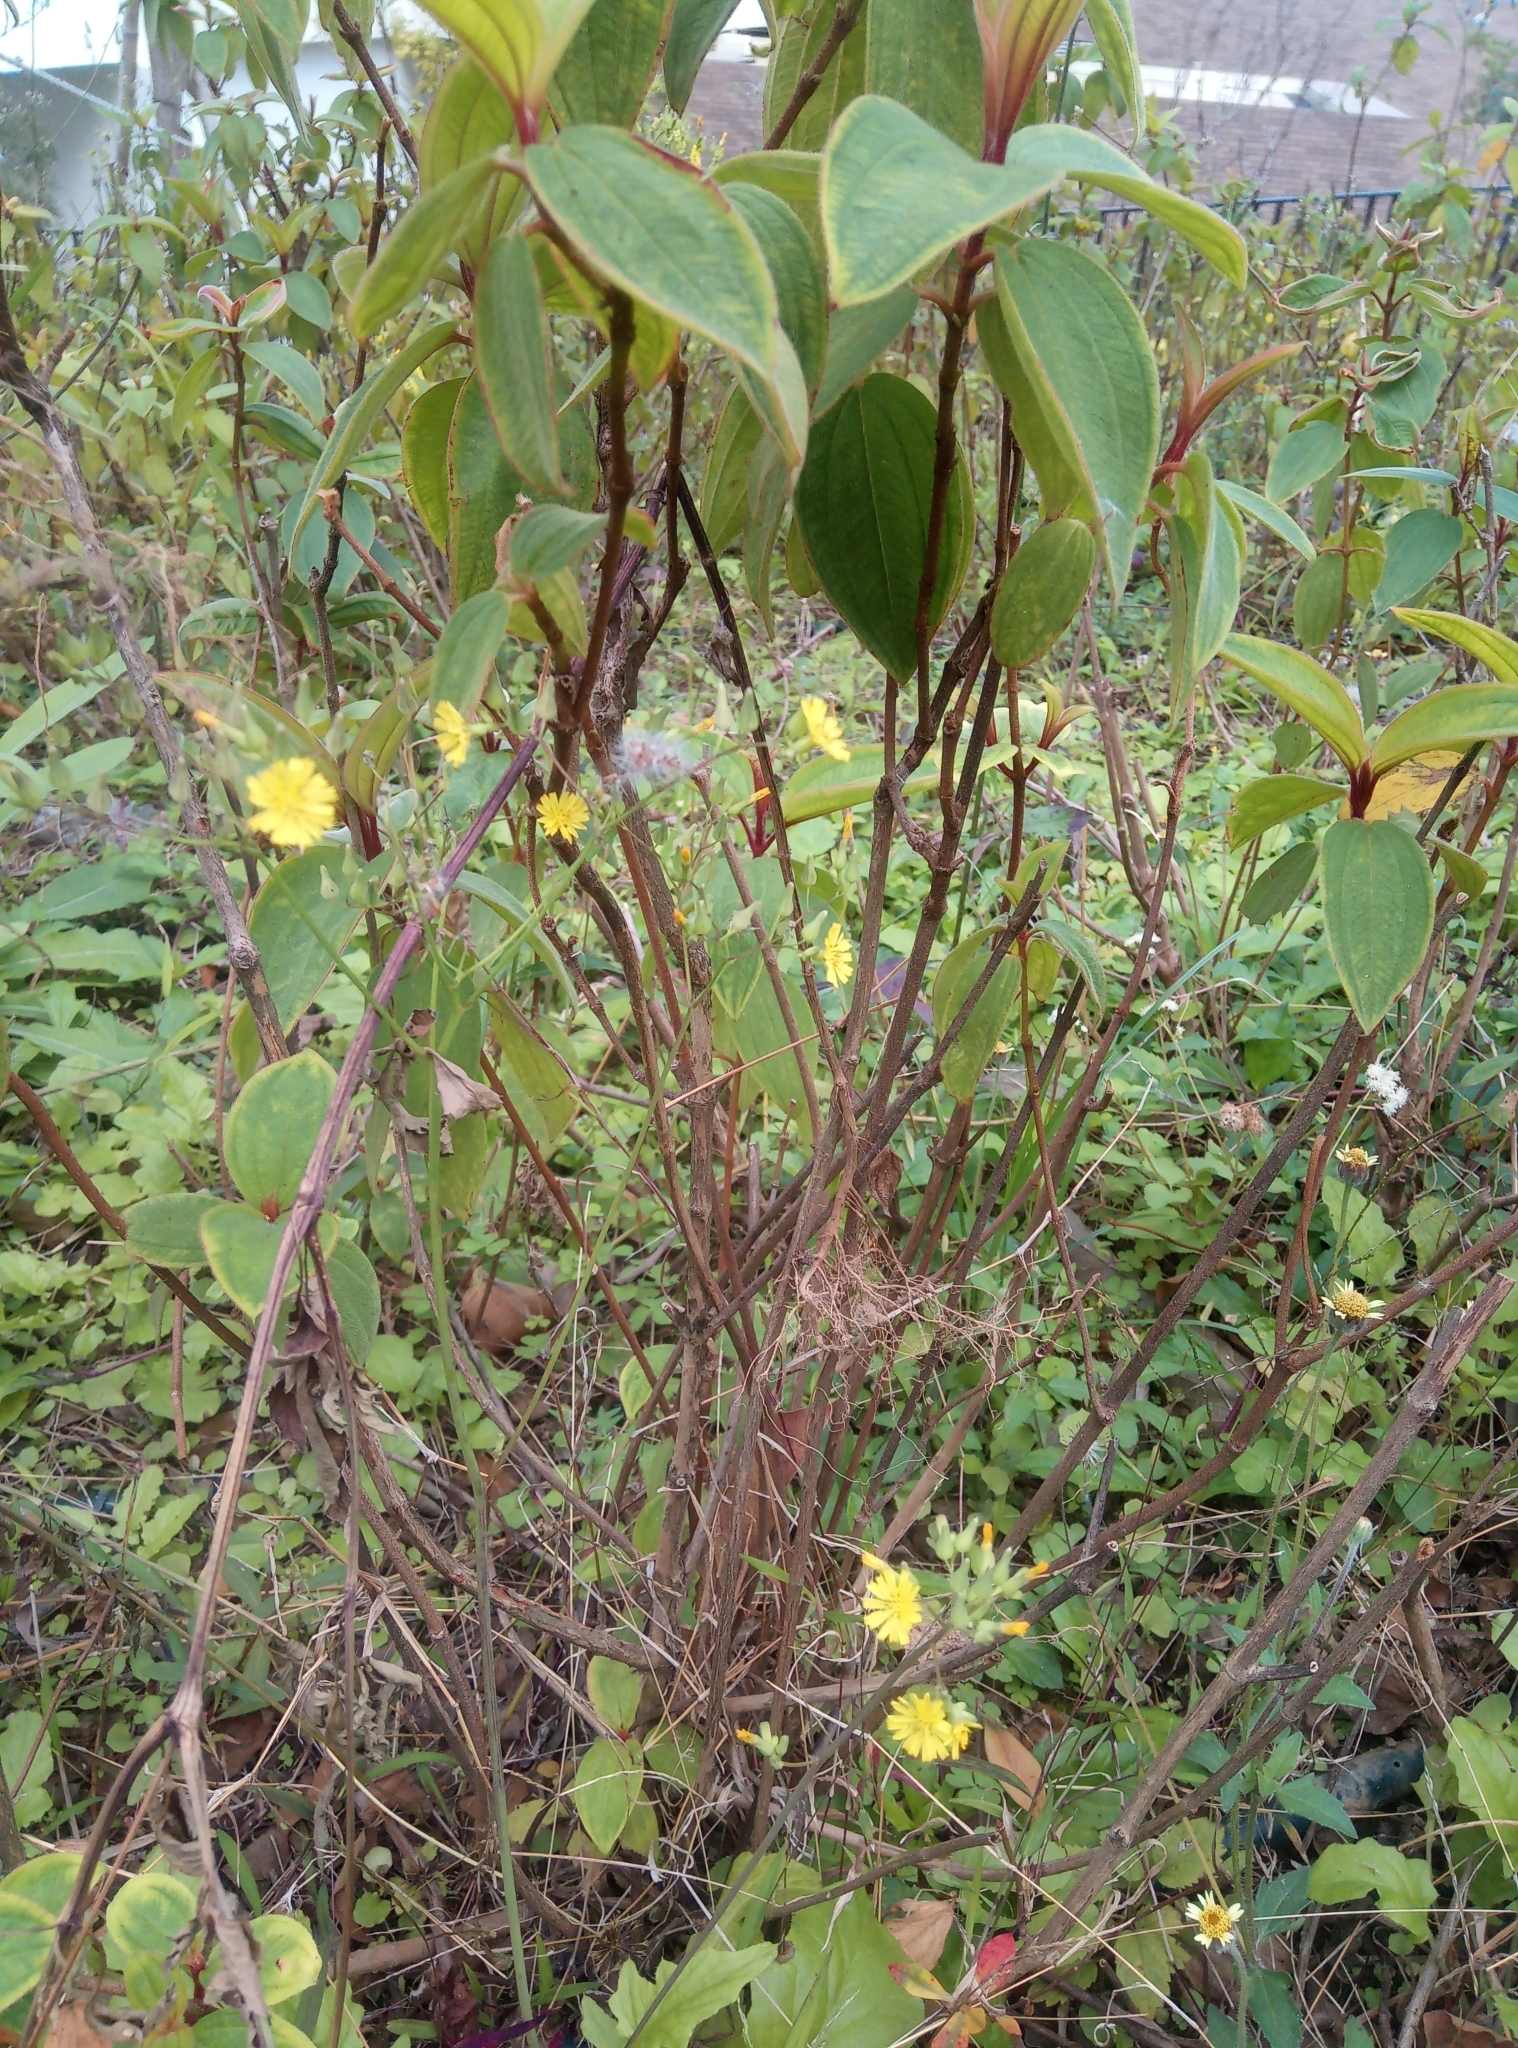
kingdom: Plantae
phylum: Tracheophyta
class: Magnoliopsida
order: Asterales
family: Asteraceae
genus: Youngia
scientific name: Youngia japonica
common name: Oriental false hawksbeard
